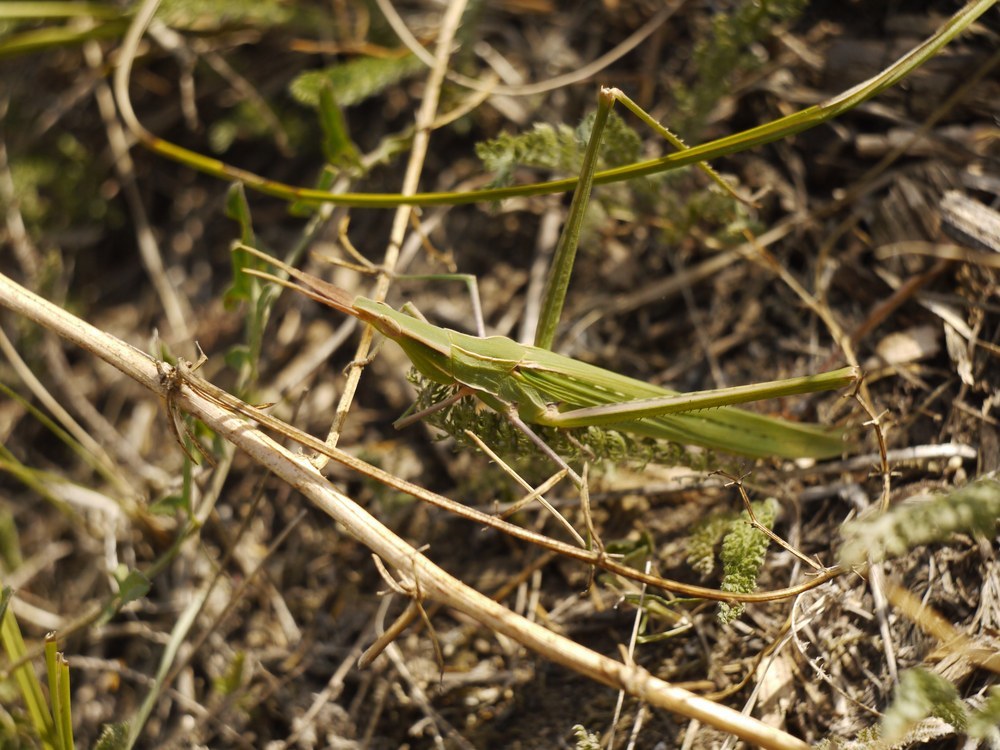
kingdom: Animalia
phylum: Arthropoda
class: Insecta
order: Orthoptera
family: Acrididae
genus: Acrida
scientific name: Acrida ungarica
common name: Common cone-headed grasshopper
